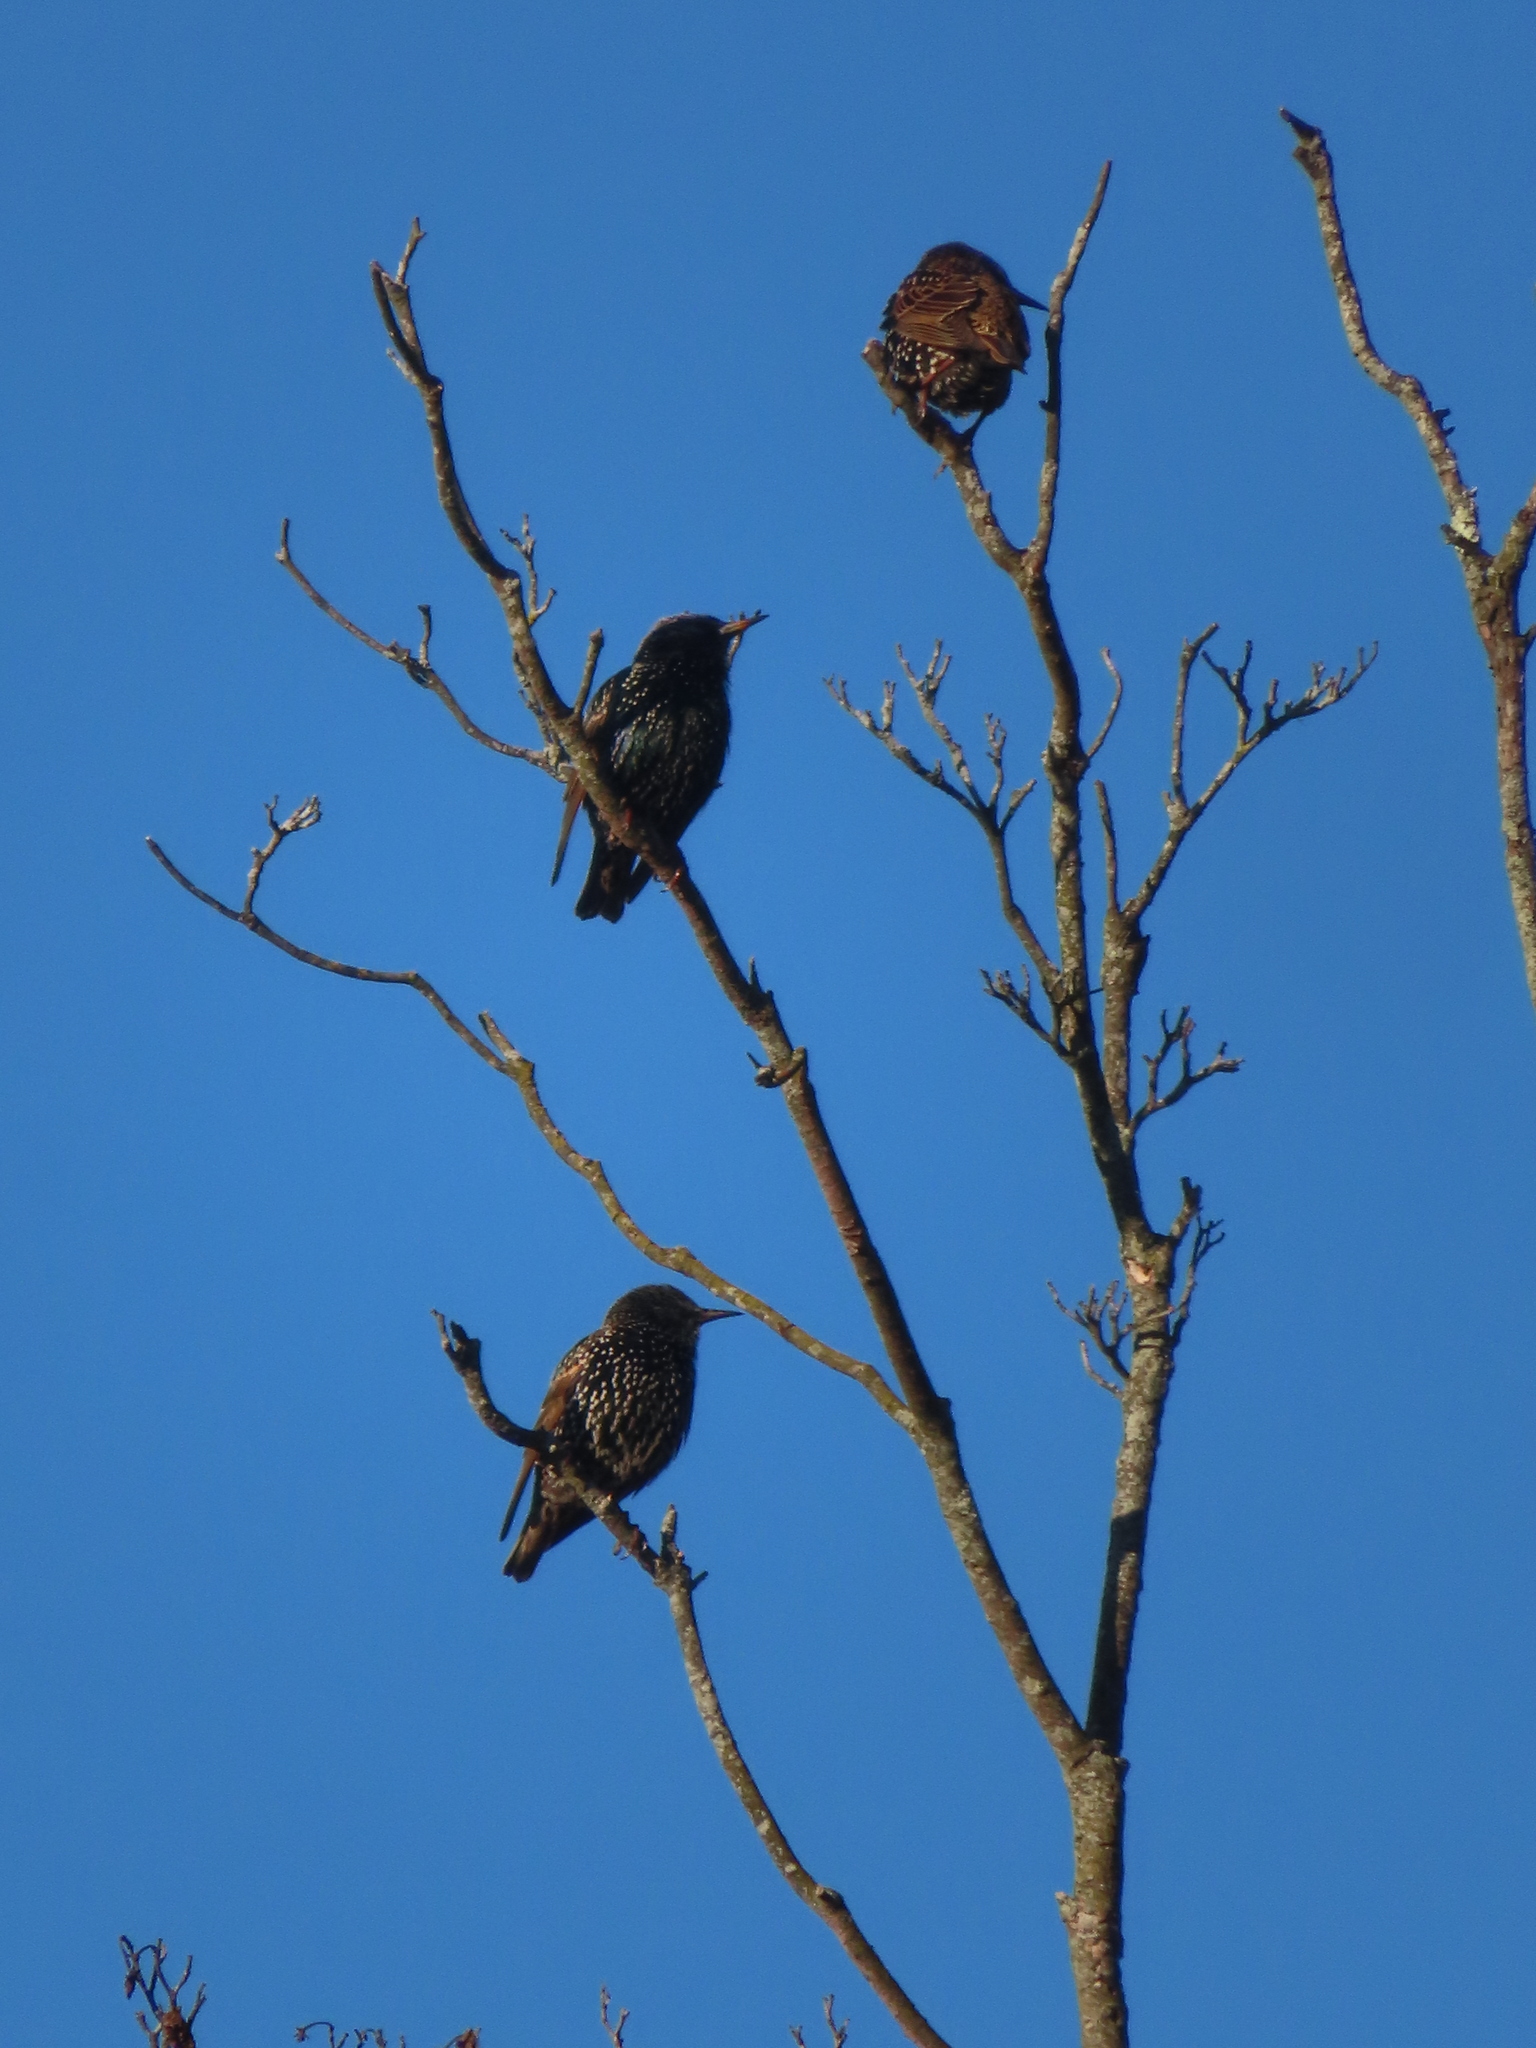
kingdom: Animalia
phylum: Chordata
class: Aves
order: Passeriformes
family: Sturnidae
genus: Sturnus
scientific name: Sturnus vulgaris
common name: Common starling
